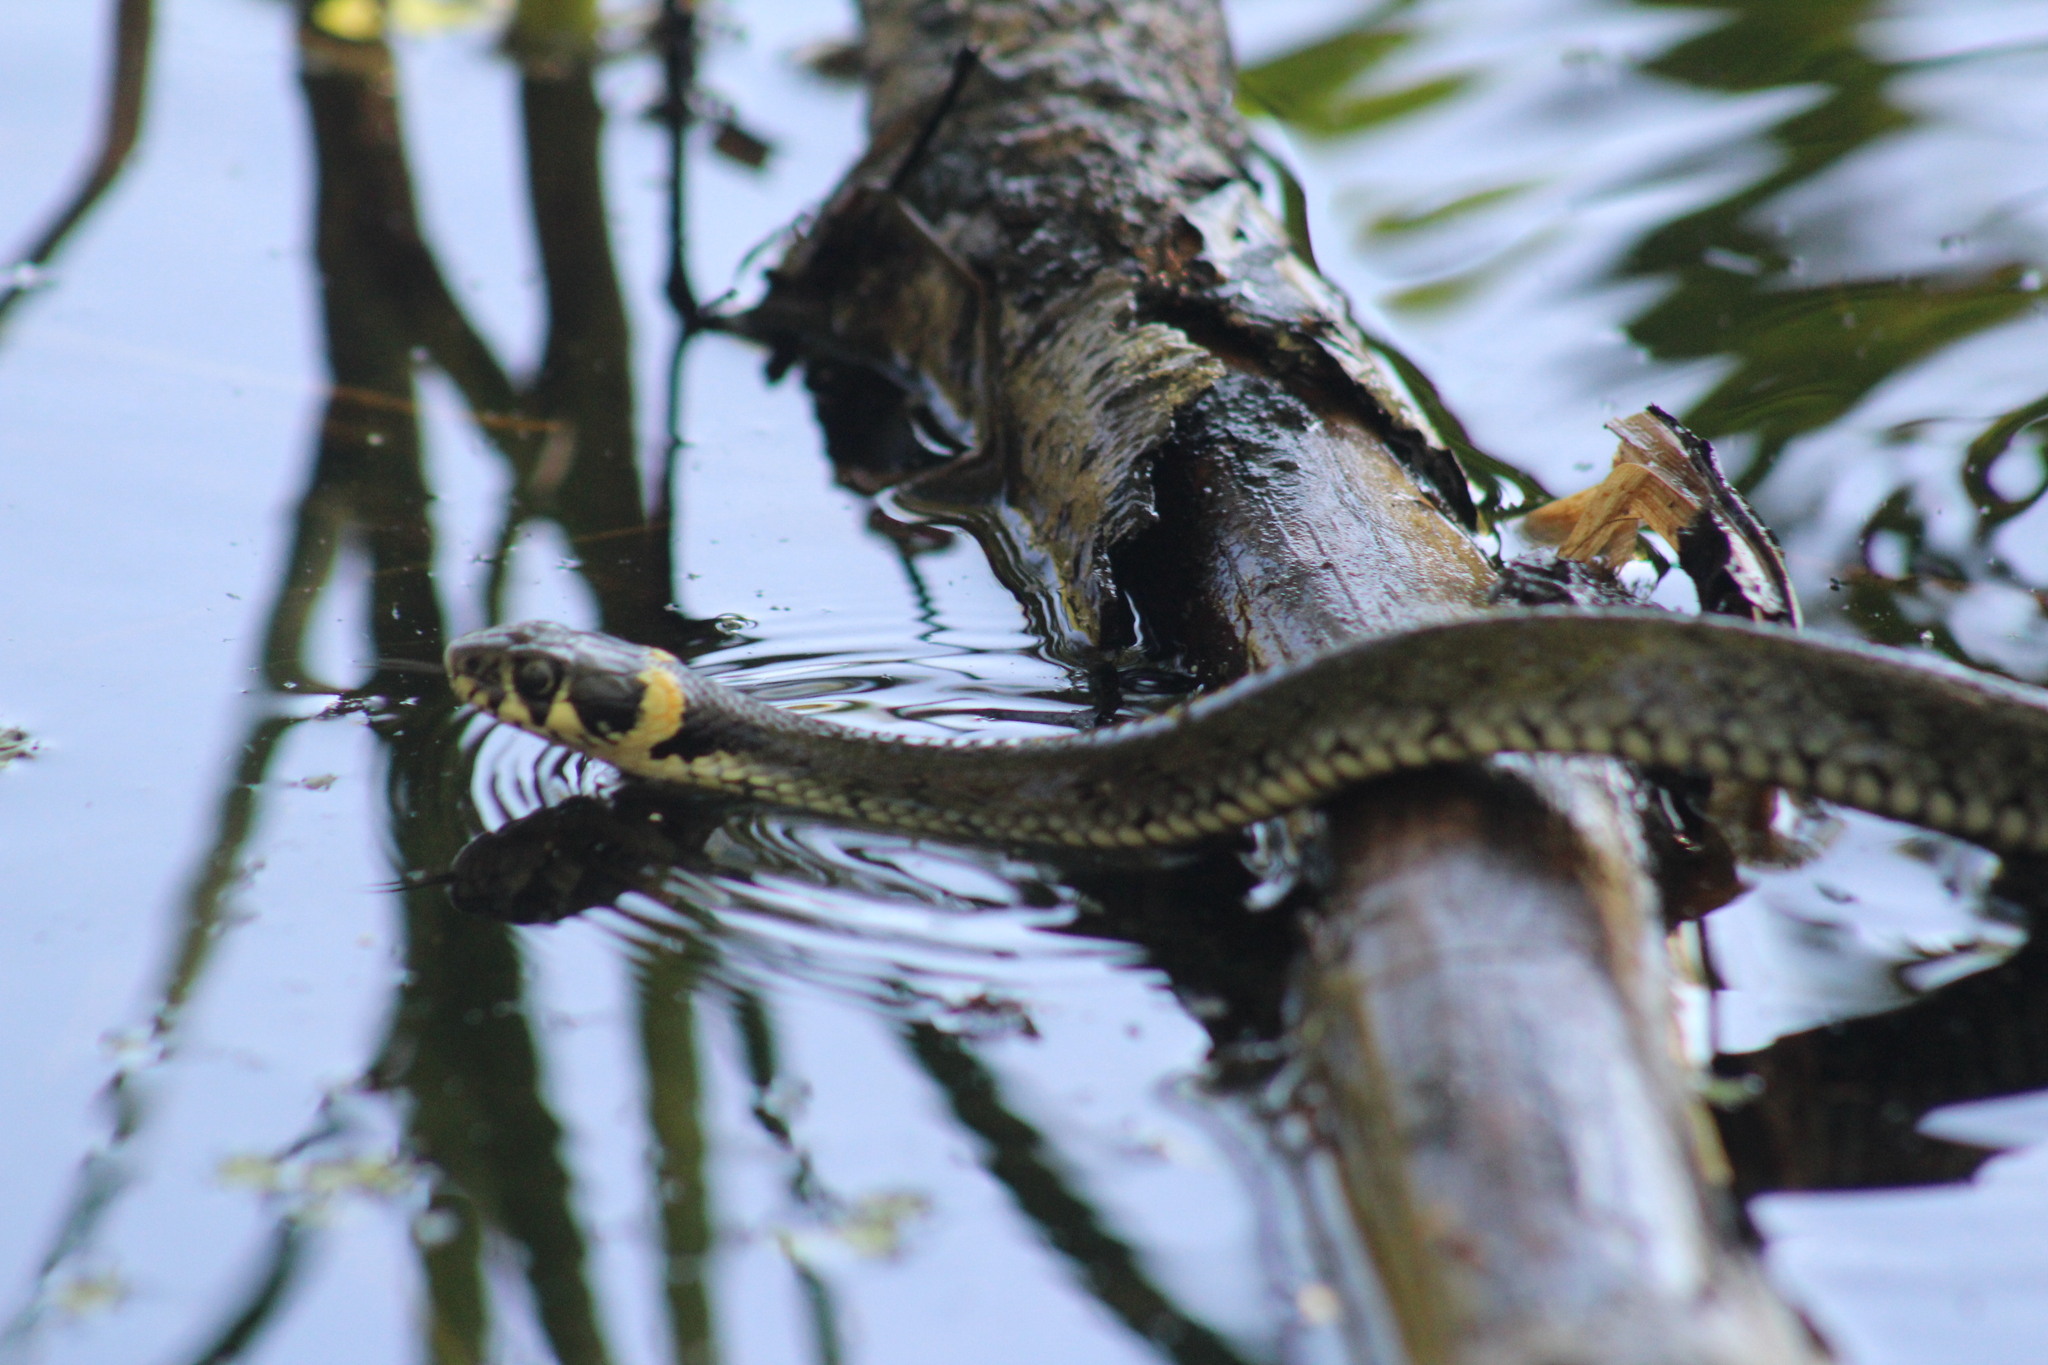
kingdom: Animalia
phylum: Chordata
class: Squamata
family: Colubridae
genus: Natrix
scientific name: Natrix natrix
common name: Grass snake
